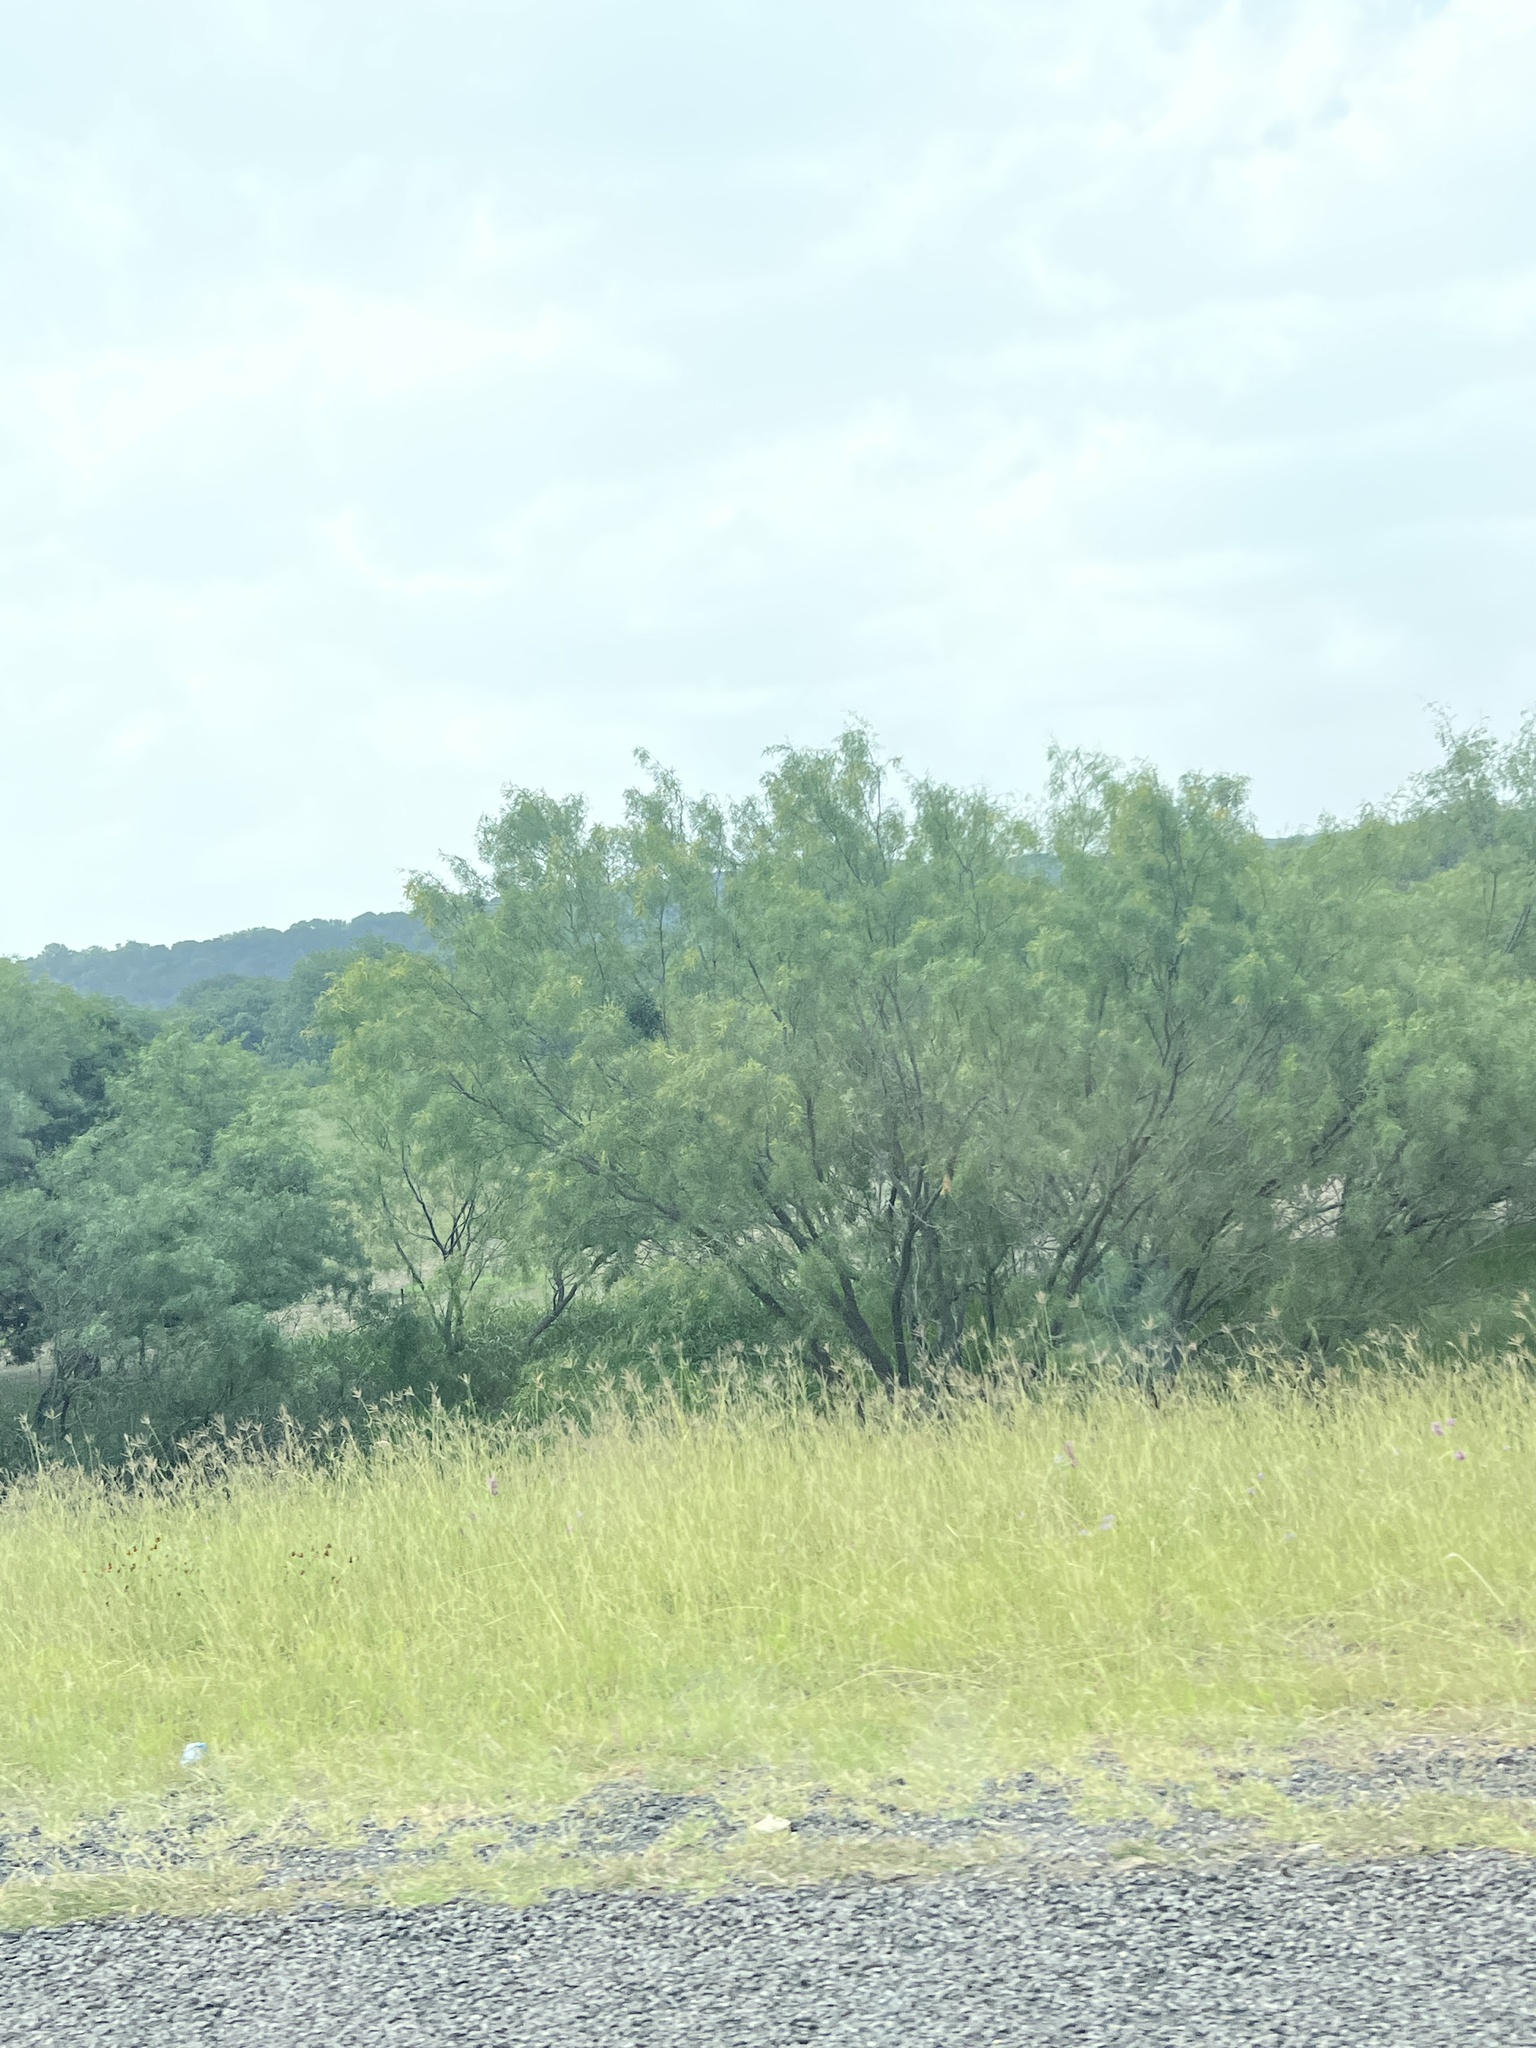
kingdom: Plantae
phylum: Tracheophyta
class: Magnoliopsida
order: Fabales
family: Fabaceae
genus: Prosopis
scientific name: Prosopis glandulosa
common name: Honey mesquite
